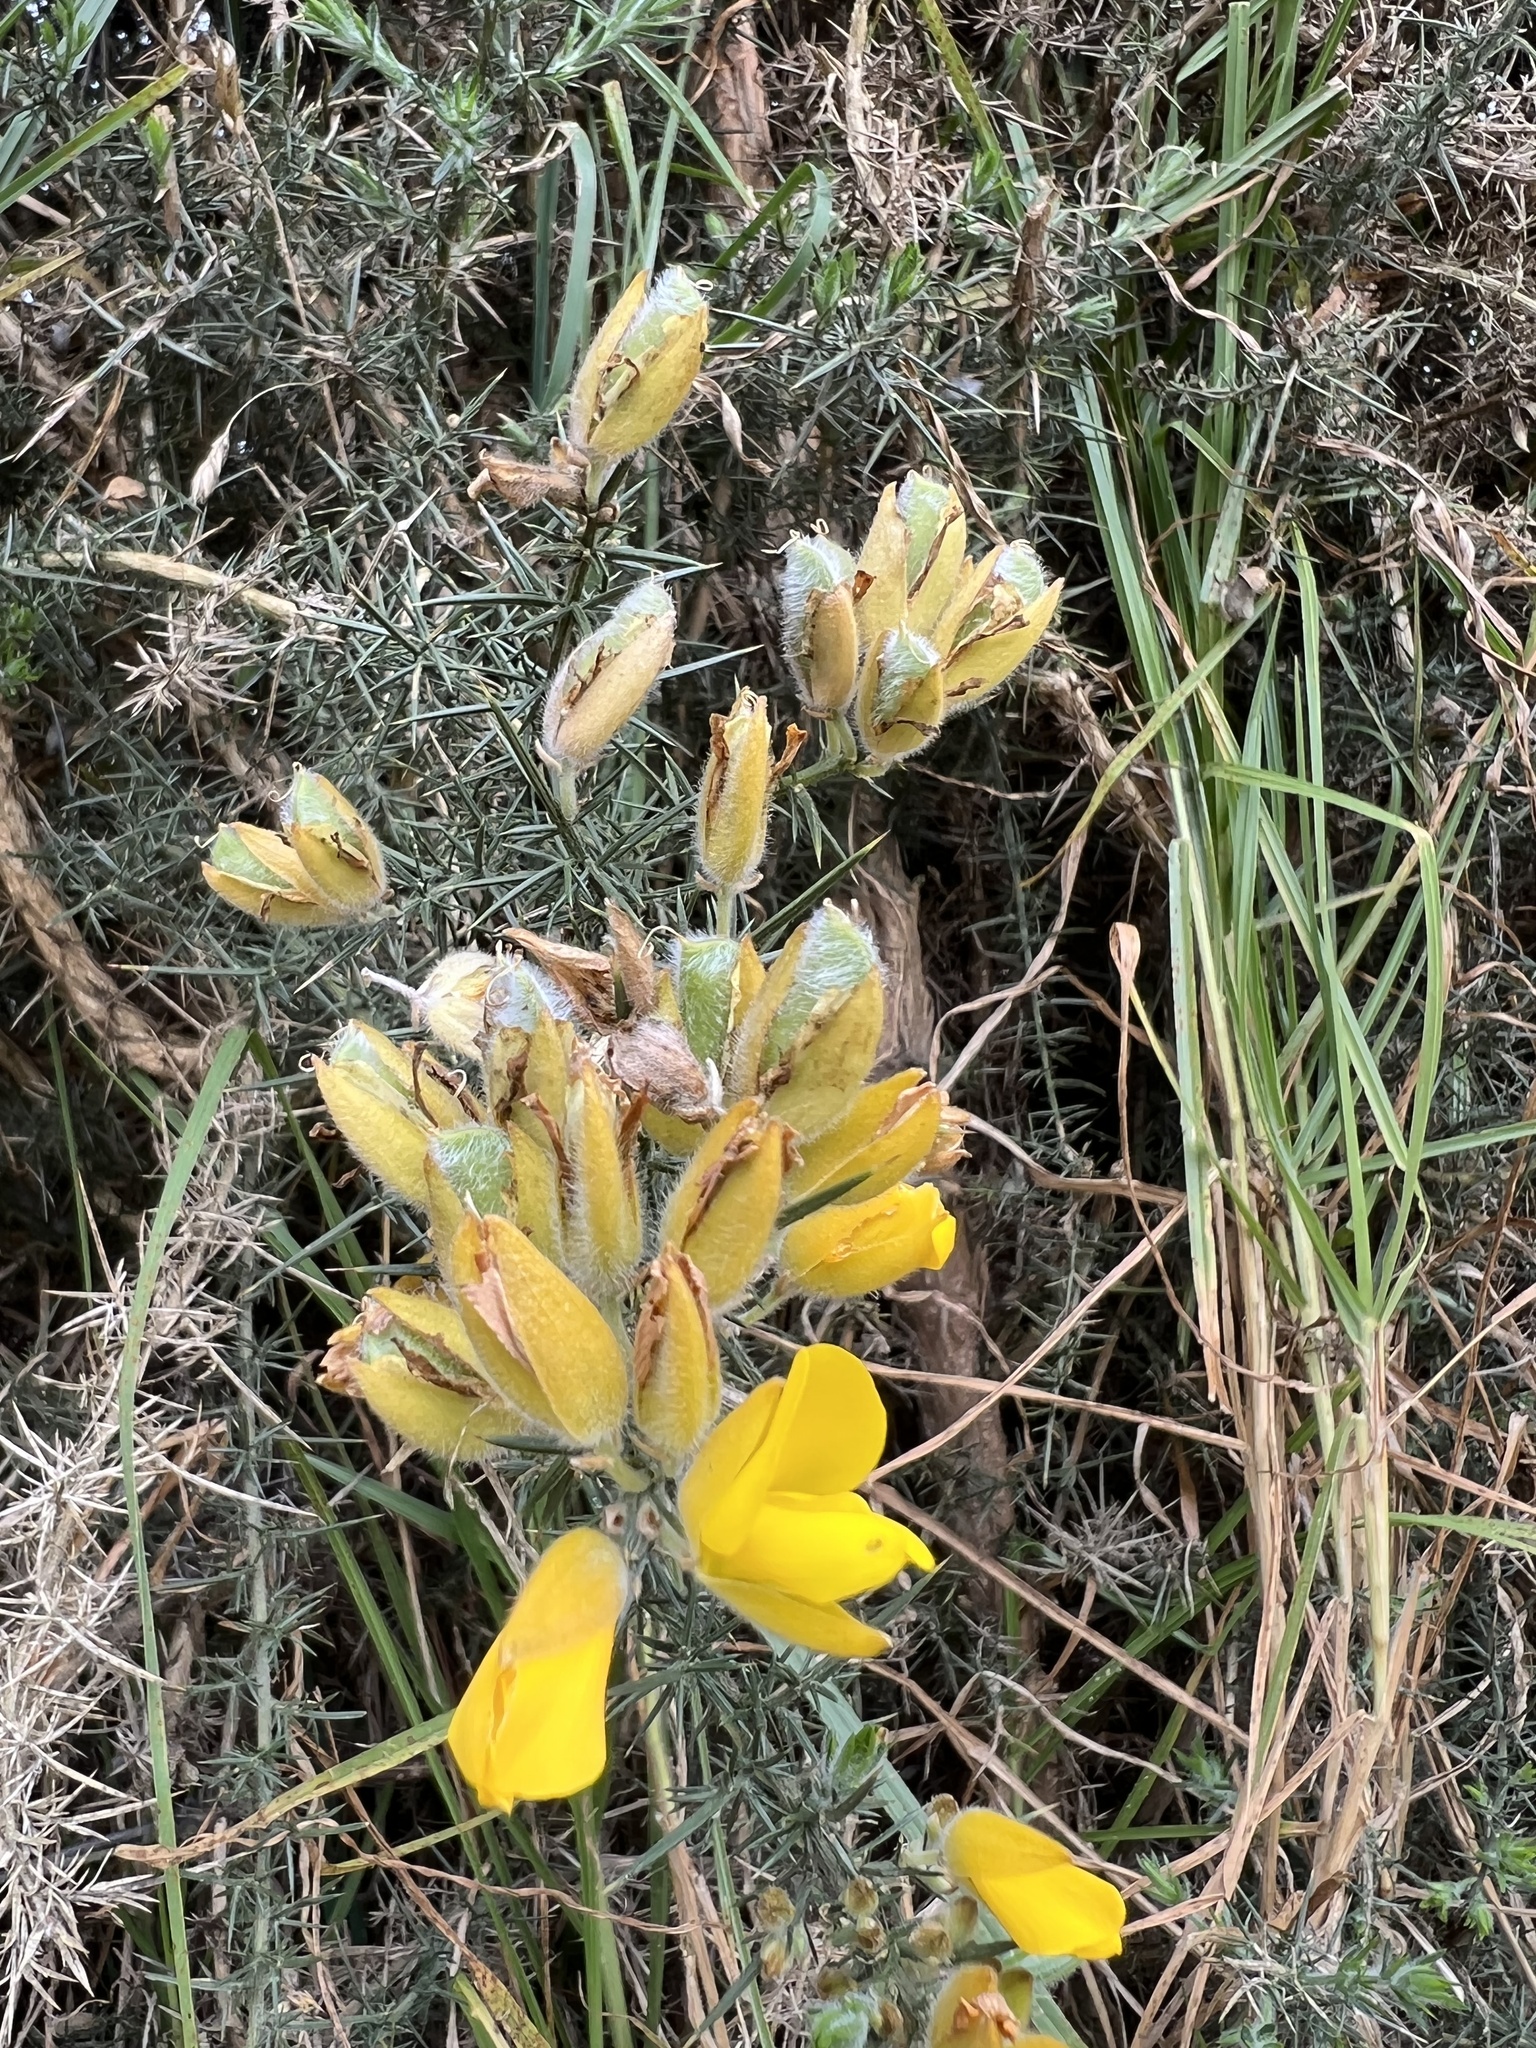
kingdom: Plantae
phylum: Tracheophyta
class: Magnoliopsida
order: Fabales
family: Fabaceae
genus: Ulex
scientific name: Ulex europaeus
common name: Common gorse
